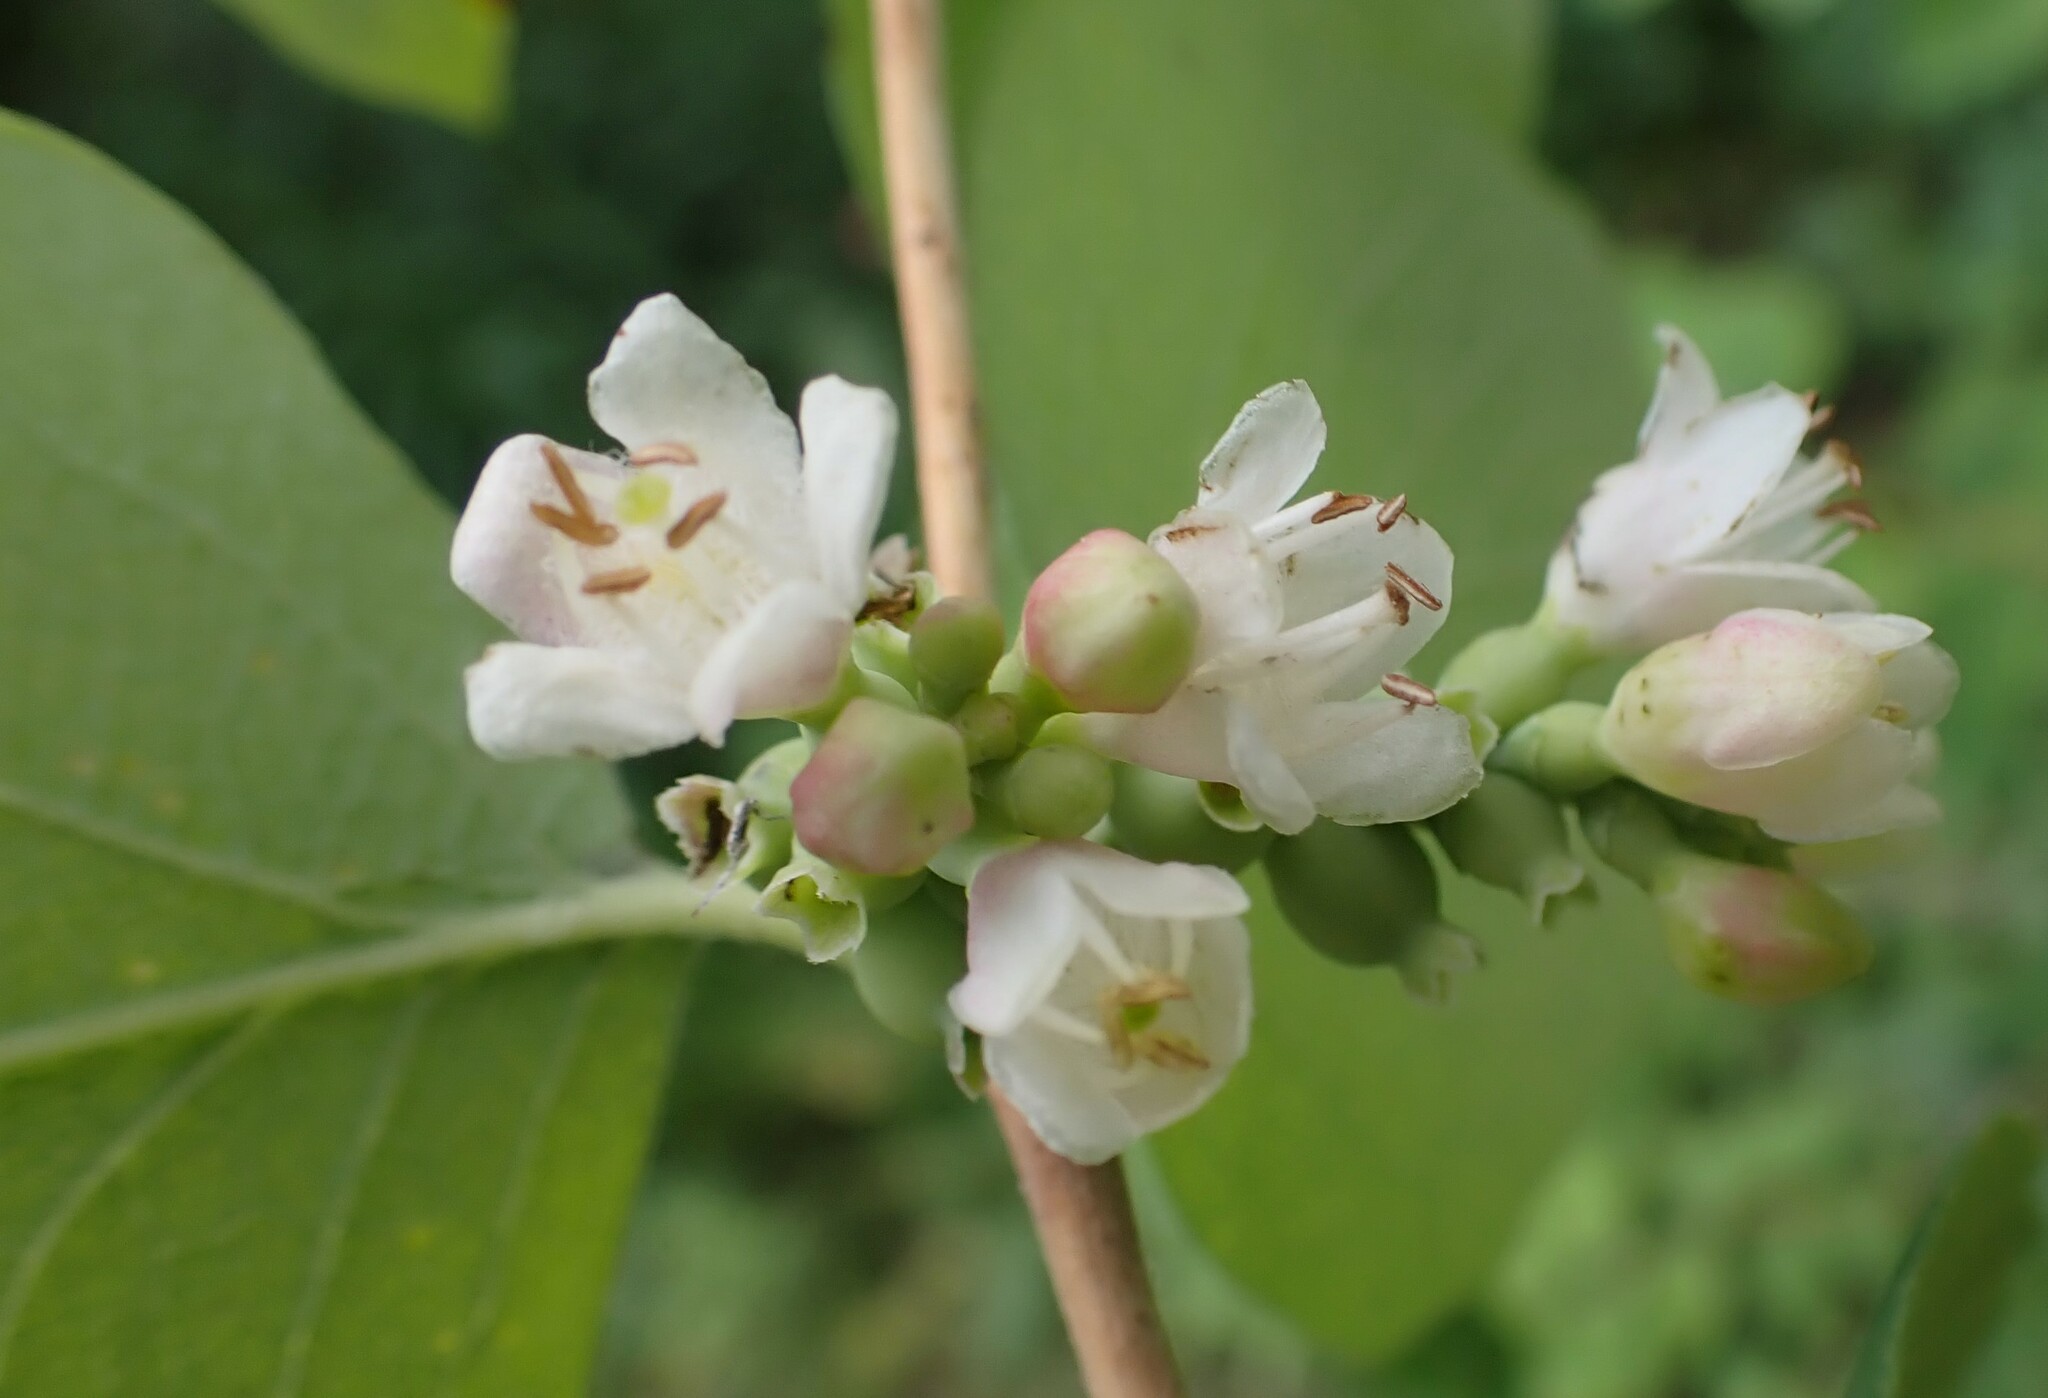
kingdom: Plantae
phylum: Tracheophyta
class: Magnoliopsida
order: Dipsacales
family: Caprifoliaceae
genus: Symphoricarpos
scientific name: Symphoricarpos occidentalis
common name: Wolfberry
